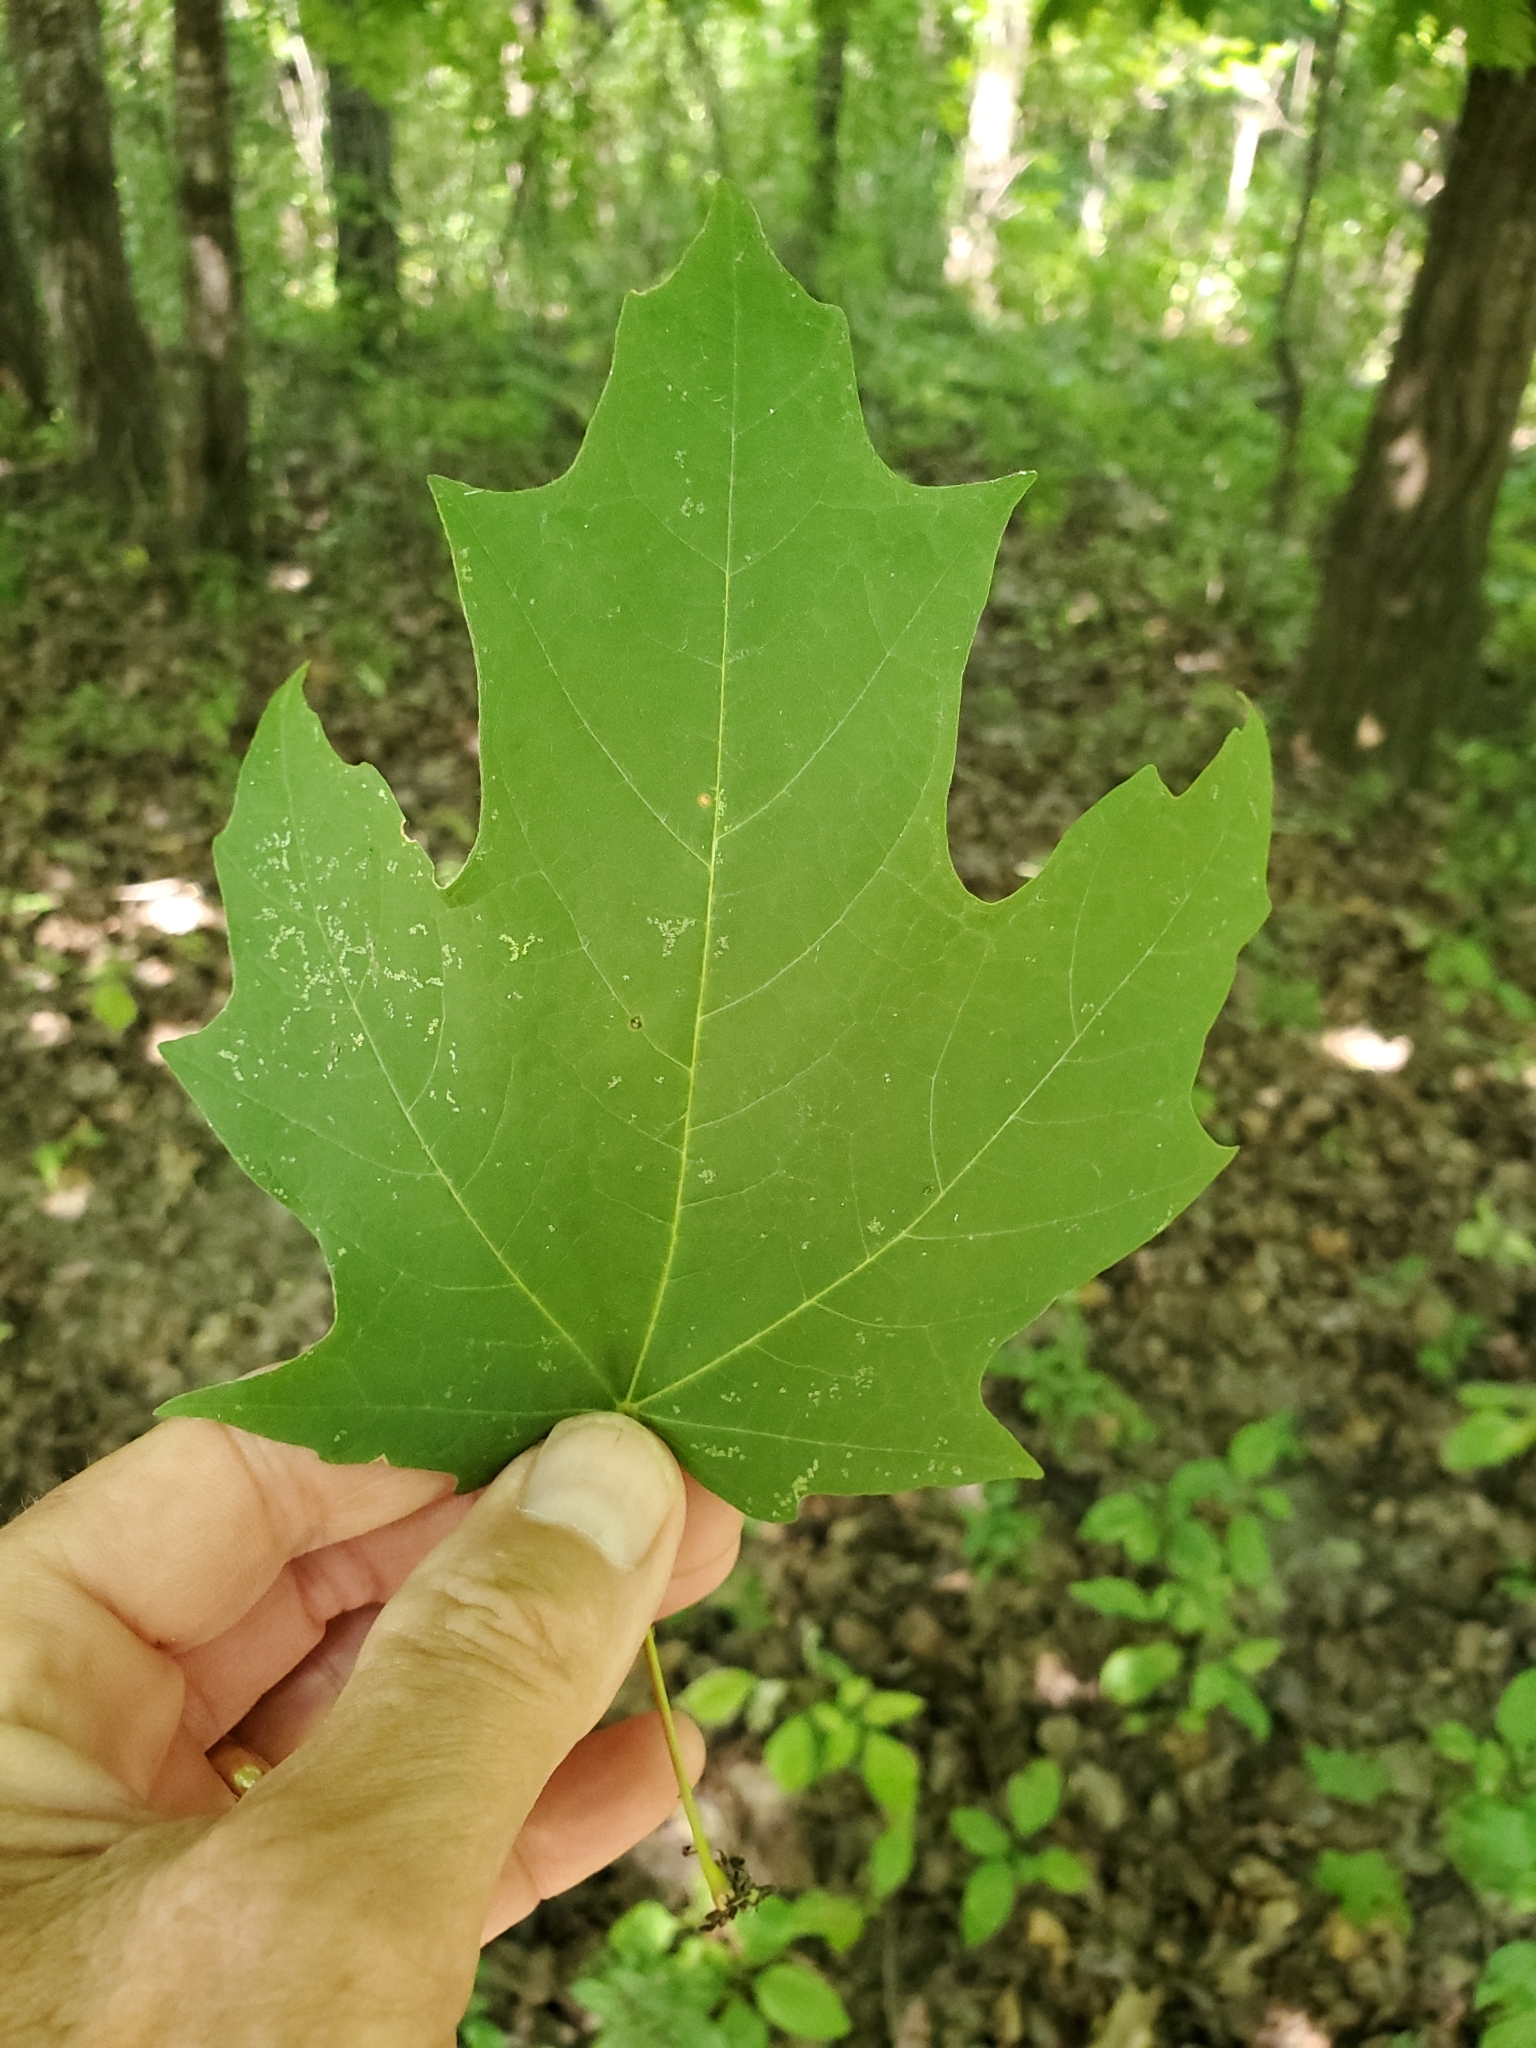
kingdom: Plantae
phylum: Tracheophyta
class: Magnoliopsida
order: Sapindales
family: Sapindaceae
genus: Acer
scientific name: Acer saccharum
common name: Sugar maple
